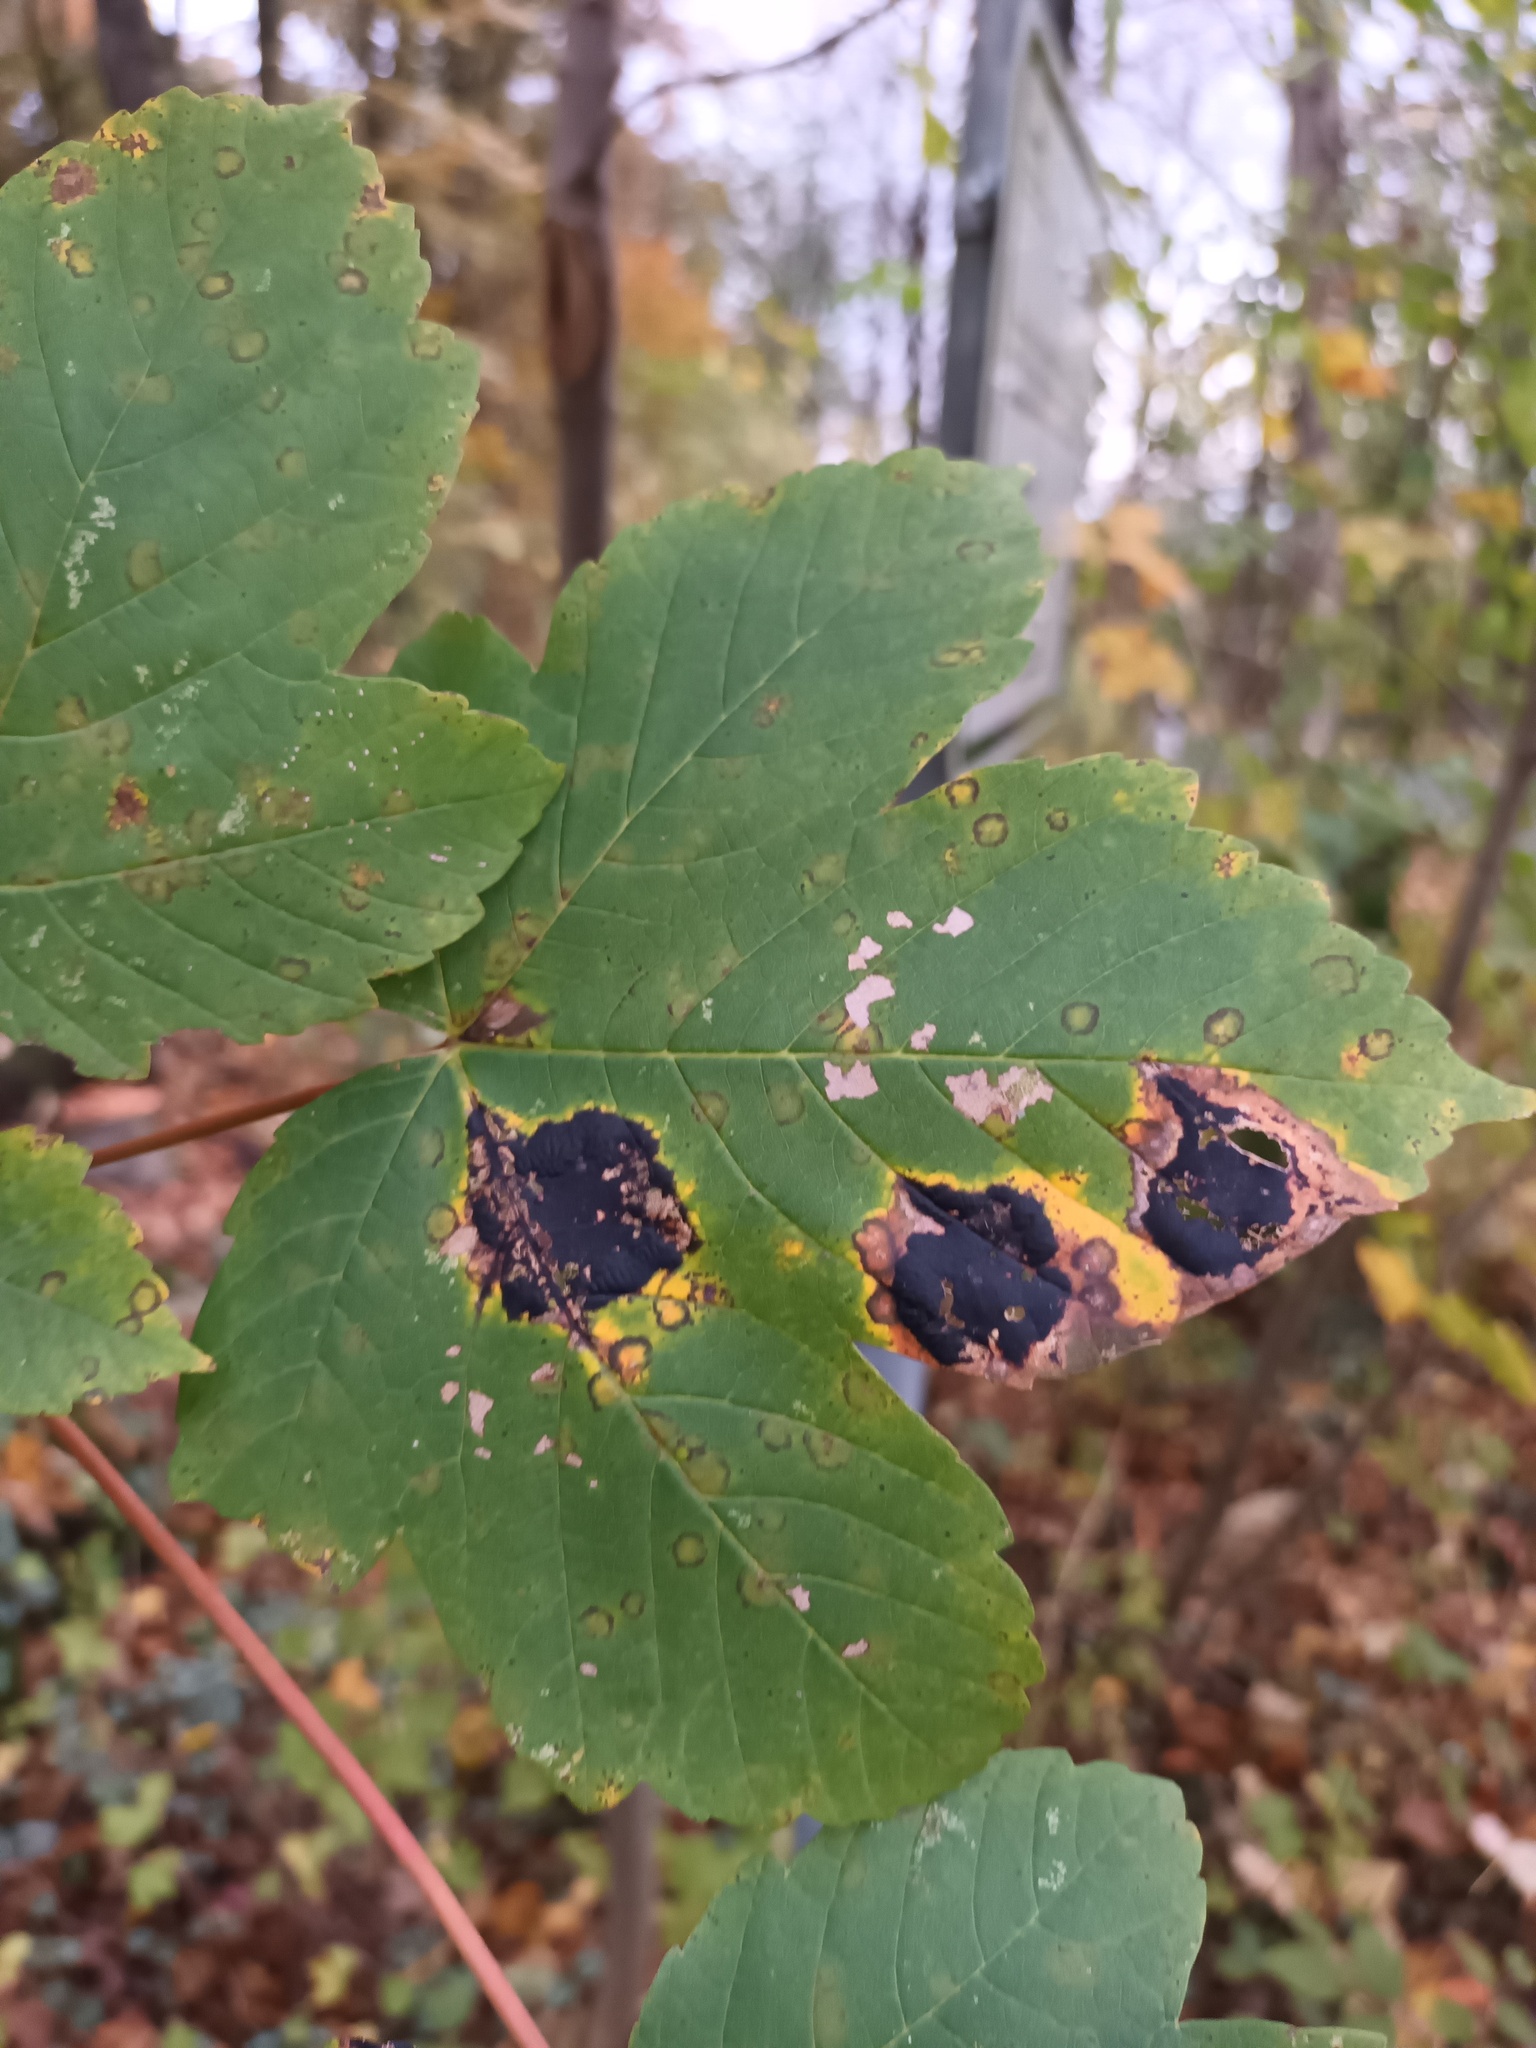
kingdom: Fungi
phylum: Ascomycota
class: Leotiomycetes
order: Rhytismatales
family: Rhytismataceae
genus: Rhytisma
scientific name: Rhytisma acerinum
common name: European tar spot
